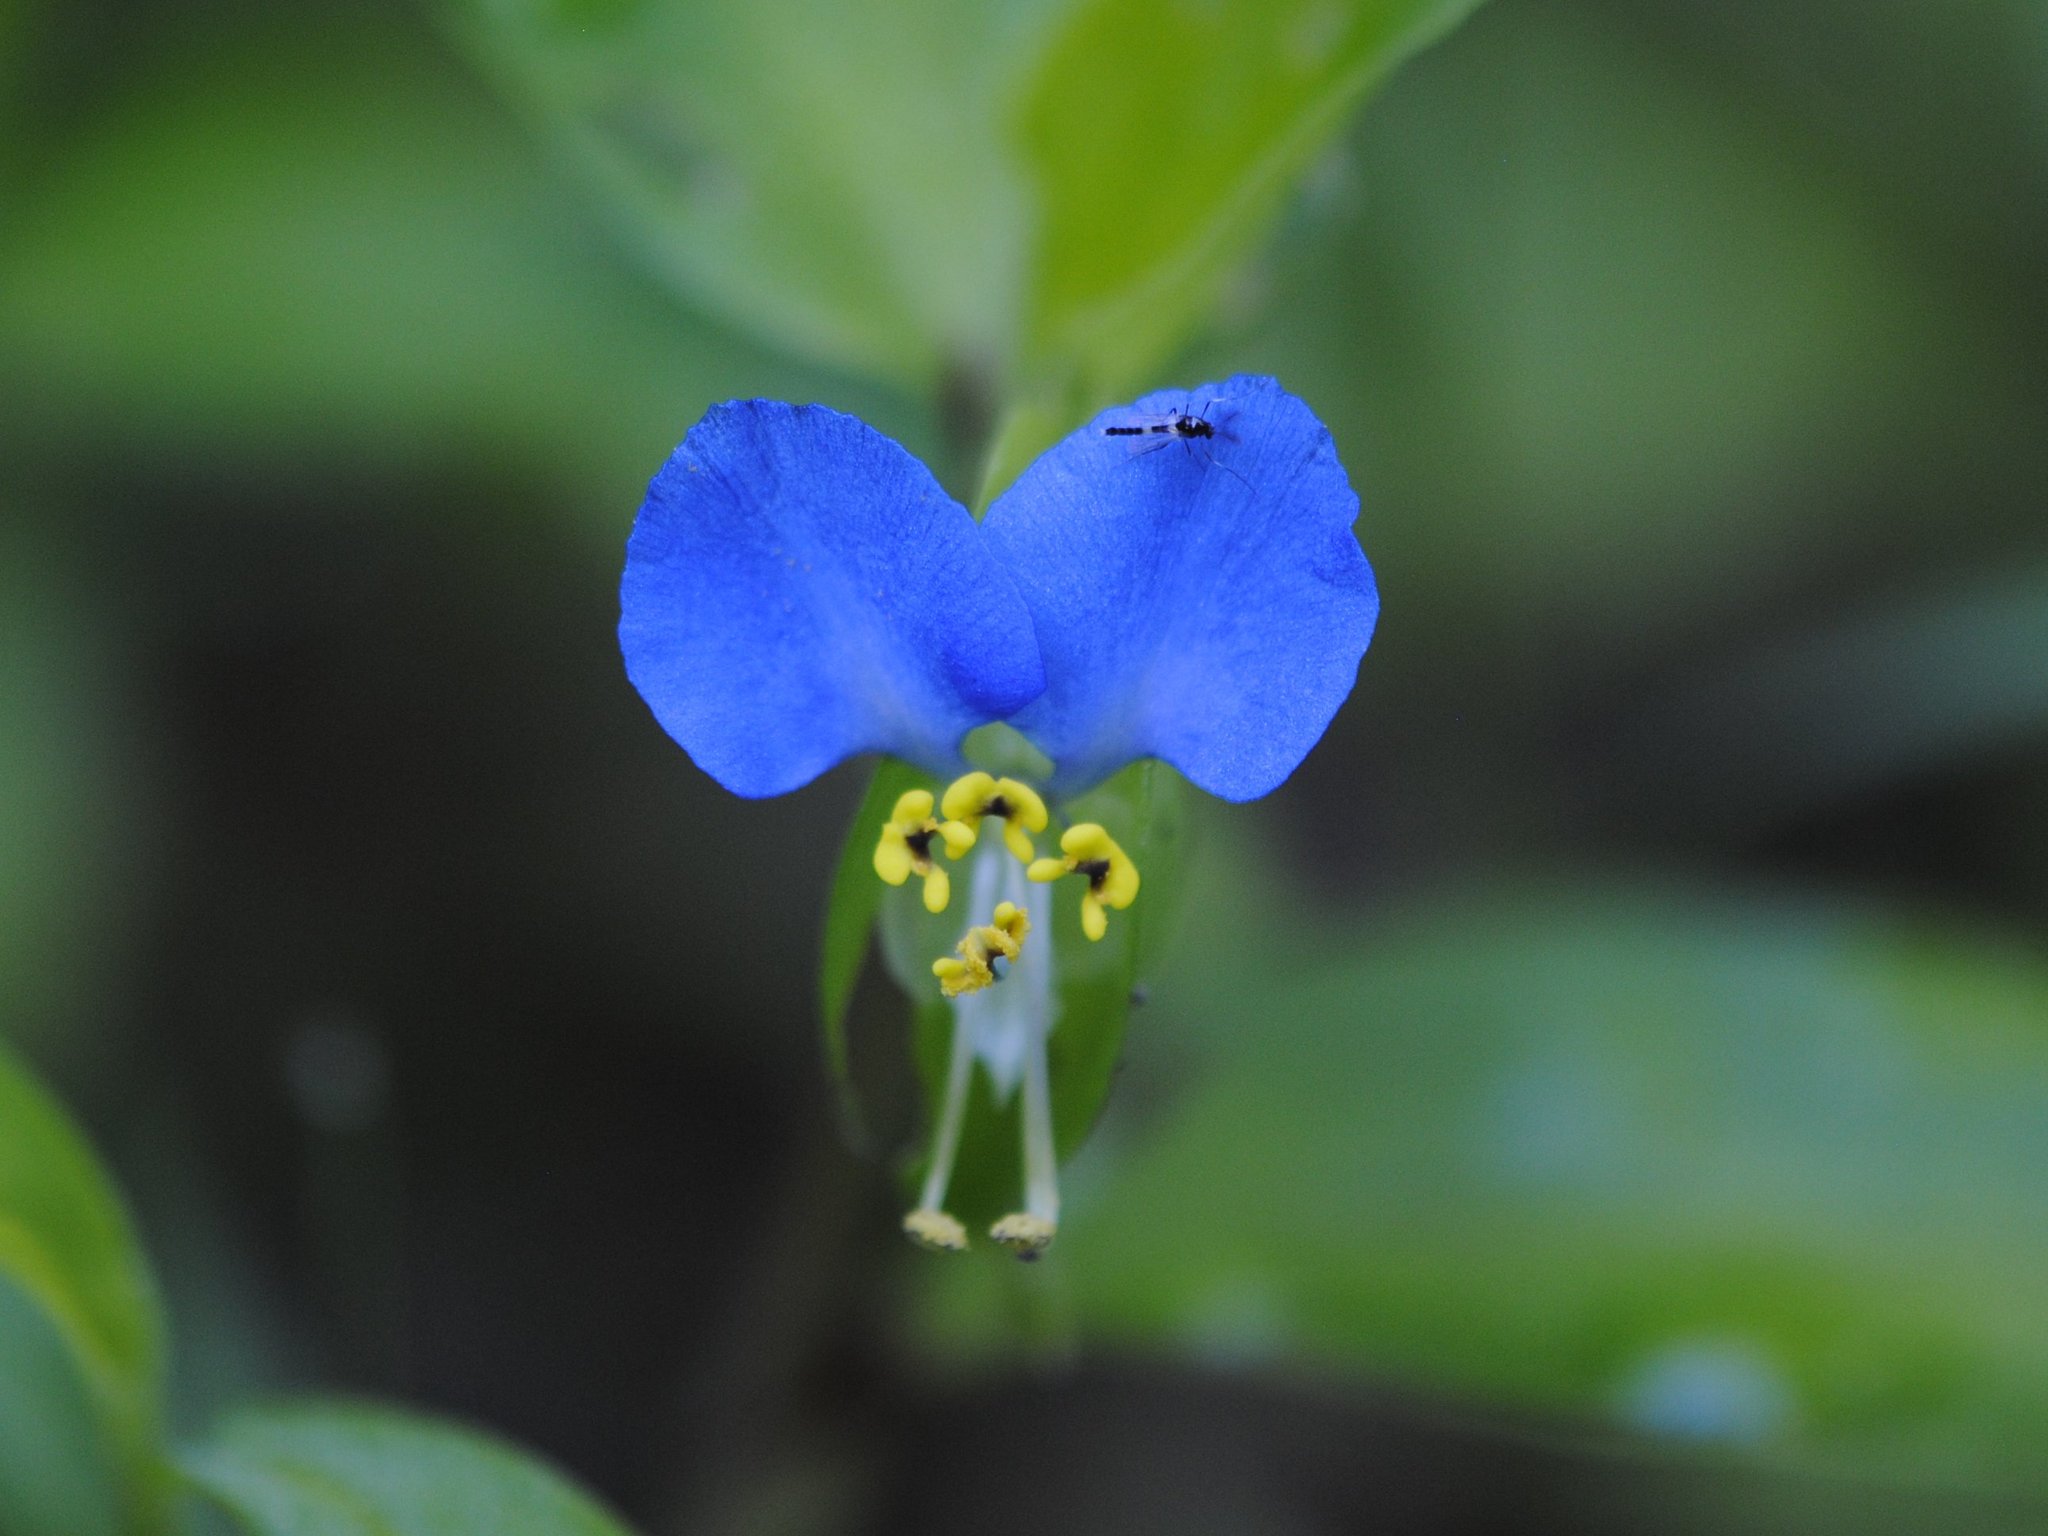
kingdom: Plantae
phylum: Tracheophyta
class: Liliopsida
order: Commelinales
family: Commelinaceae
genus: Commelina
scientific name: Commelina communis
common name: Asiatic dayflower
